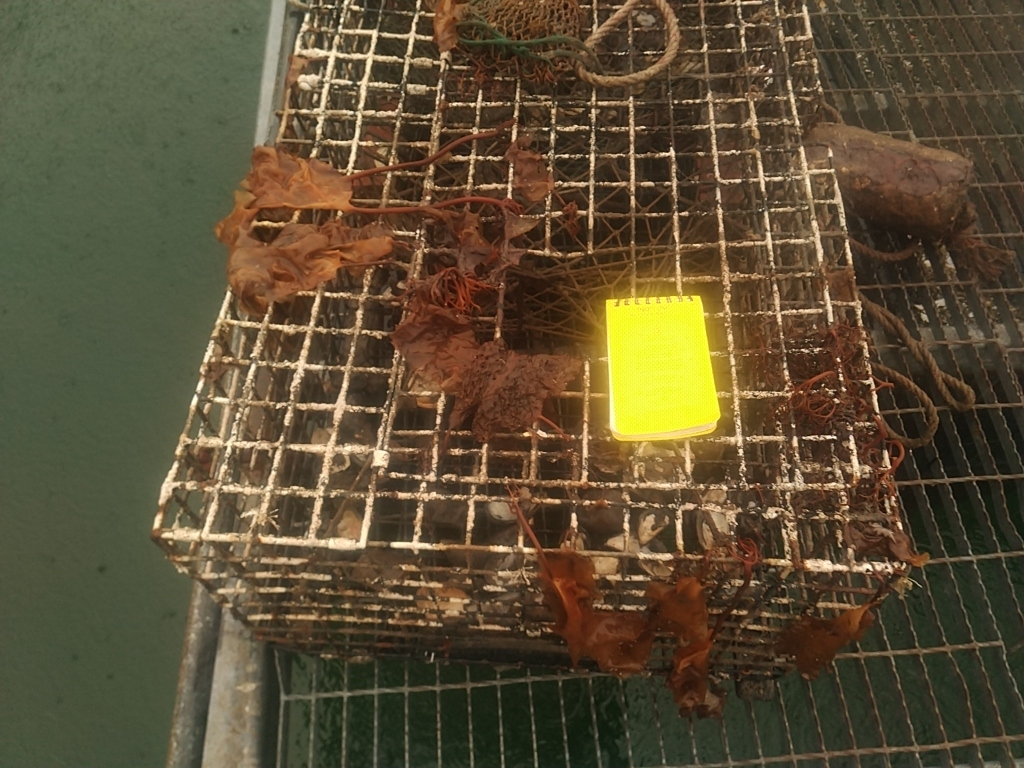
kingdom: Chromista
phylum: Ochrophyta
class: Phaeophyceae
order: Laminariales
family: Costariaceae
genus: Agarum
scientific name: Agarum clathratum
